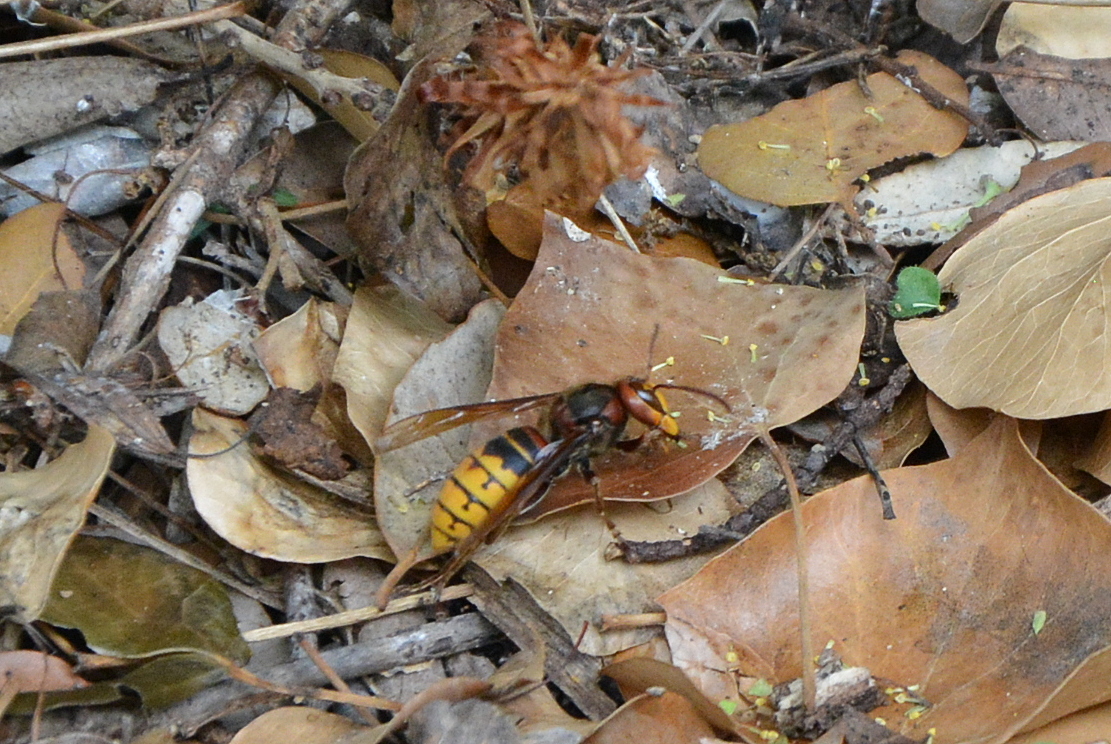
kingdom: Animalia
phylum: Arthropoda
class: Insecta
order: Hymenoptera
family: Vespidae
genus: Vespa
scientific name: Vespa crabro
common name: Hornet
